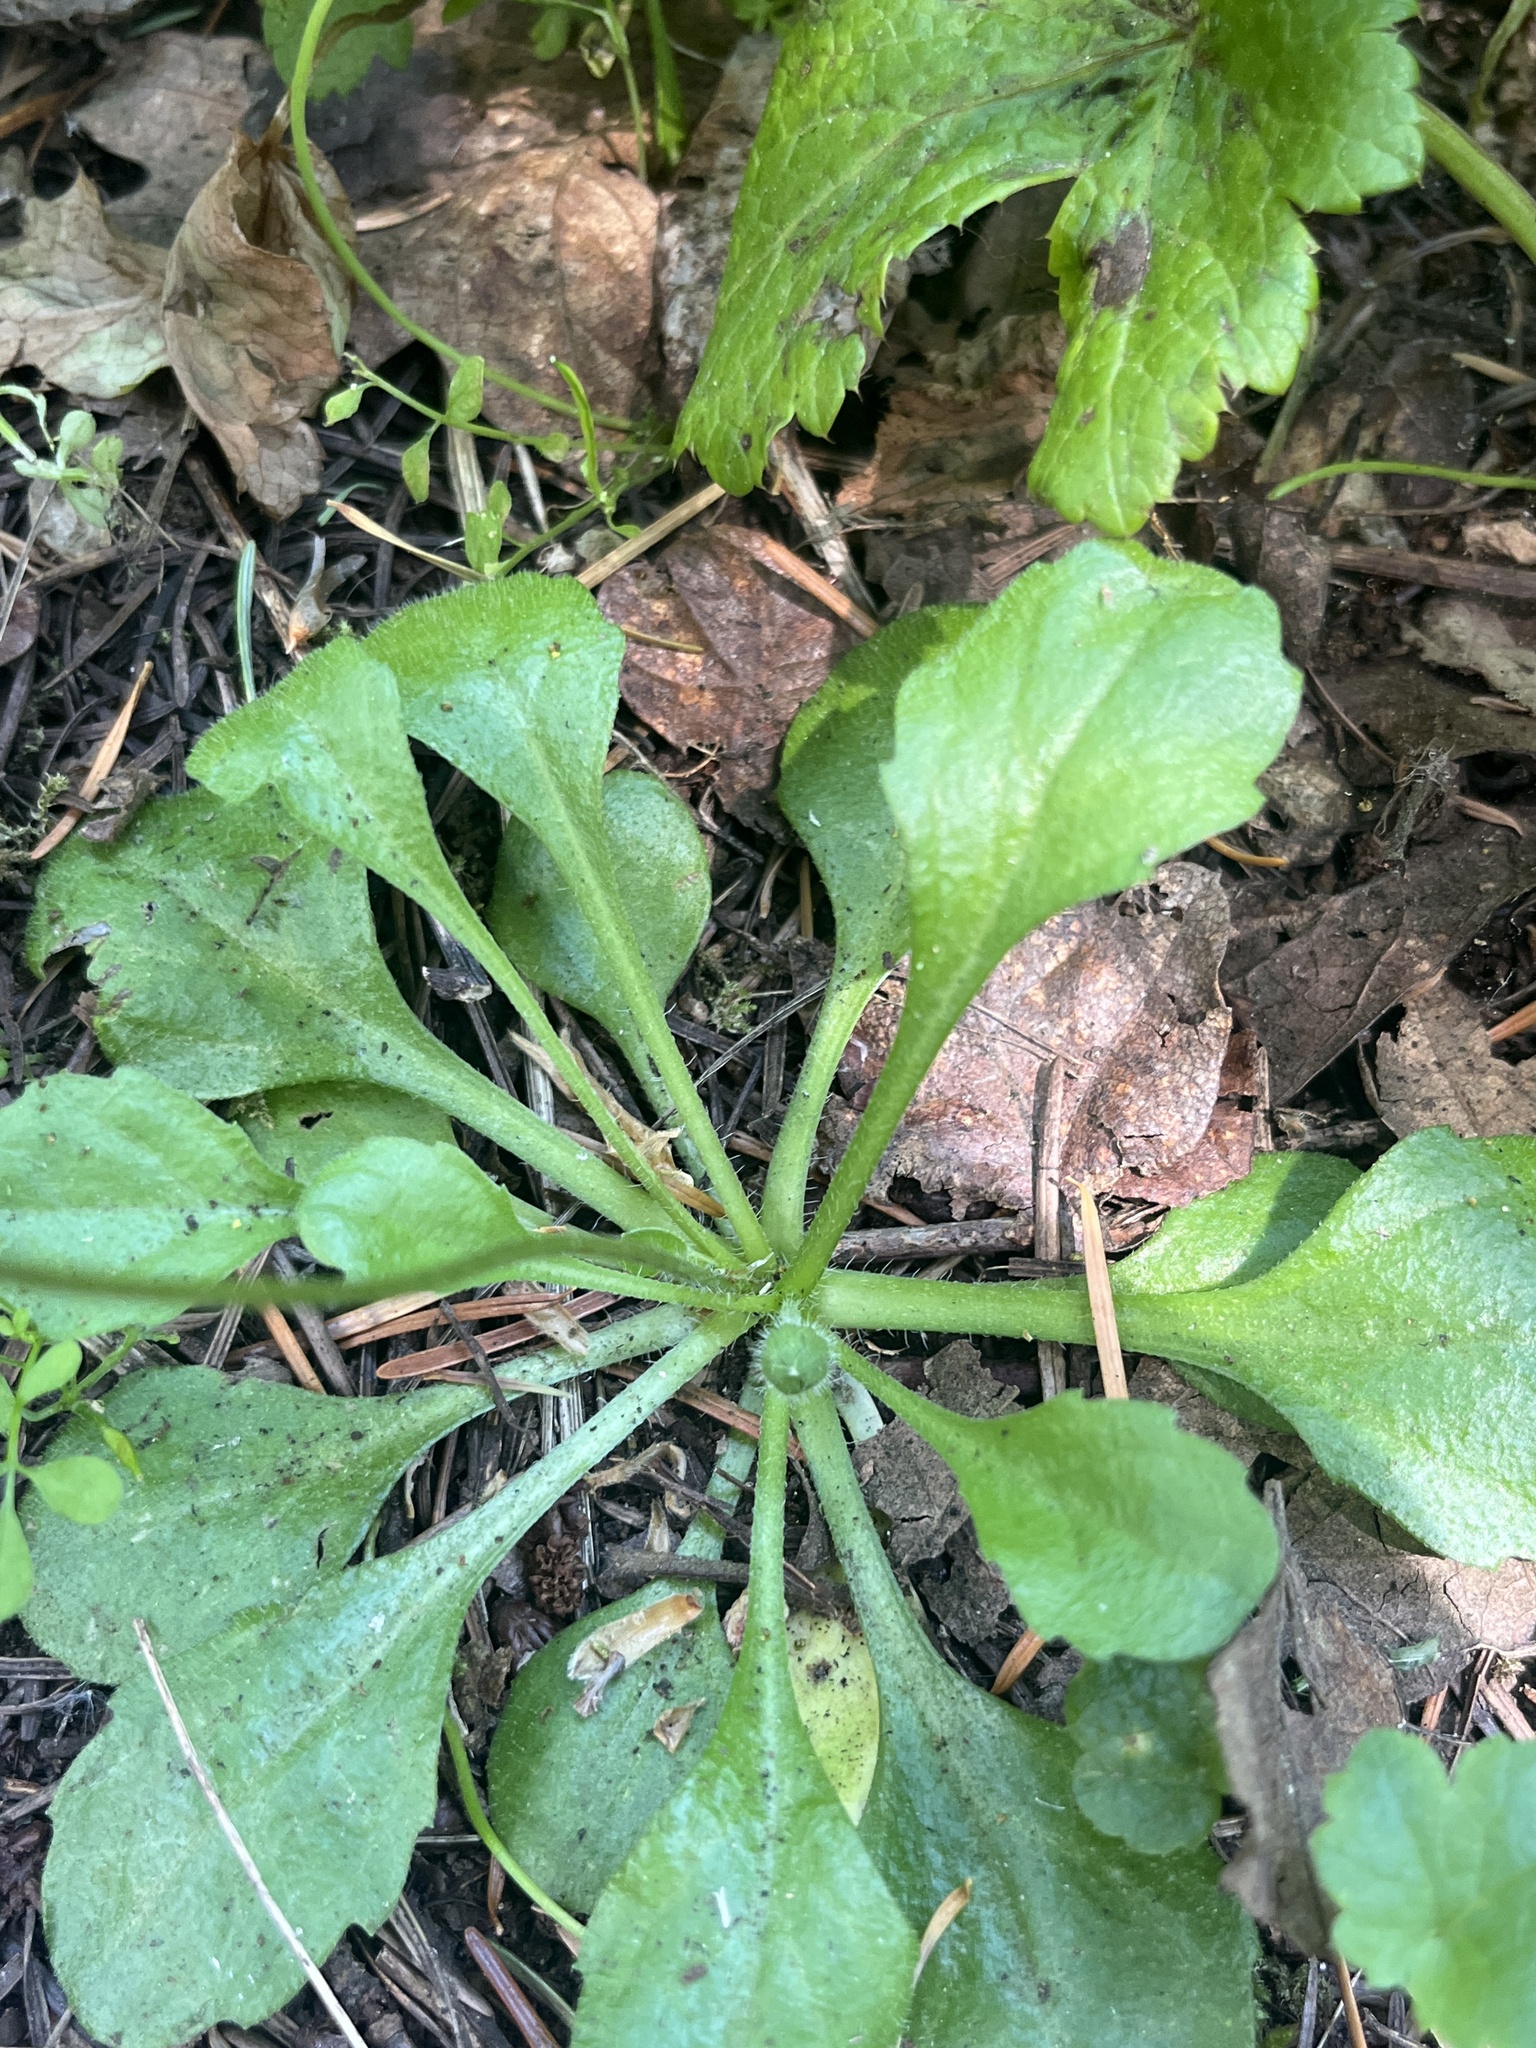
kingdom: Plantae
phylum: Tracheophyta
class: Magnoliopsida
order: Asterales
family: Asteraceae
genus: Bellis
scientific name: Bellis perennis
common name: Lawndaisy
